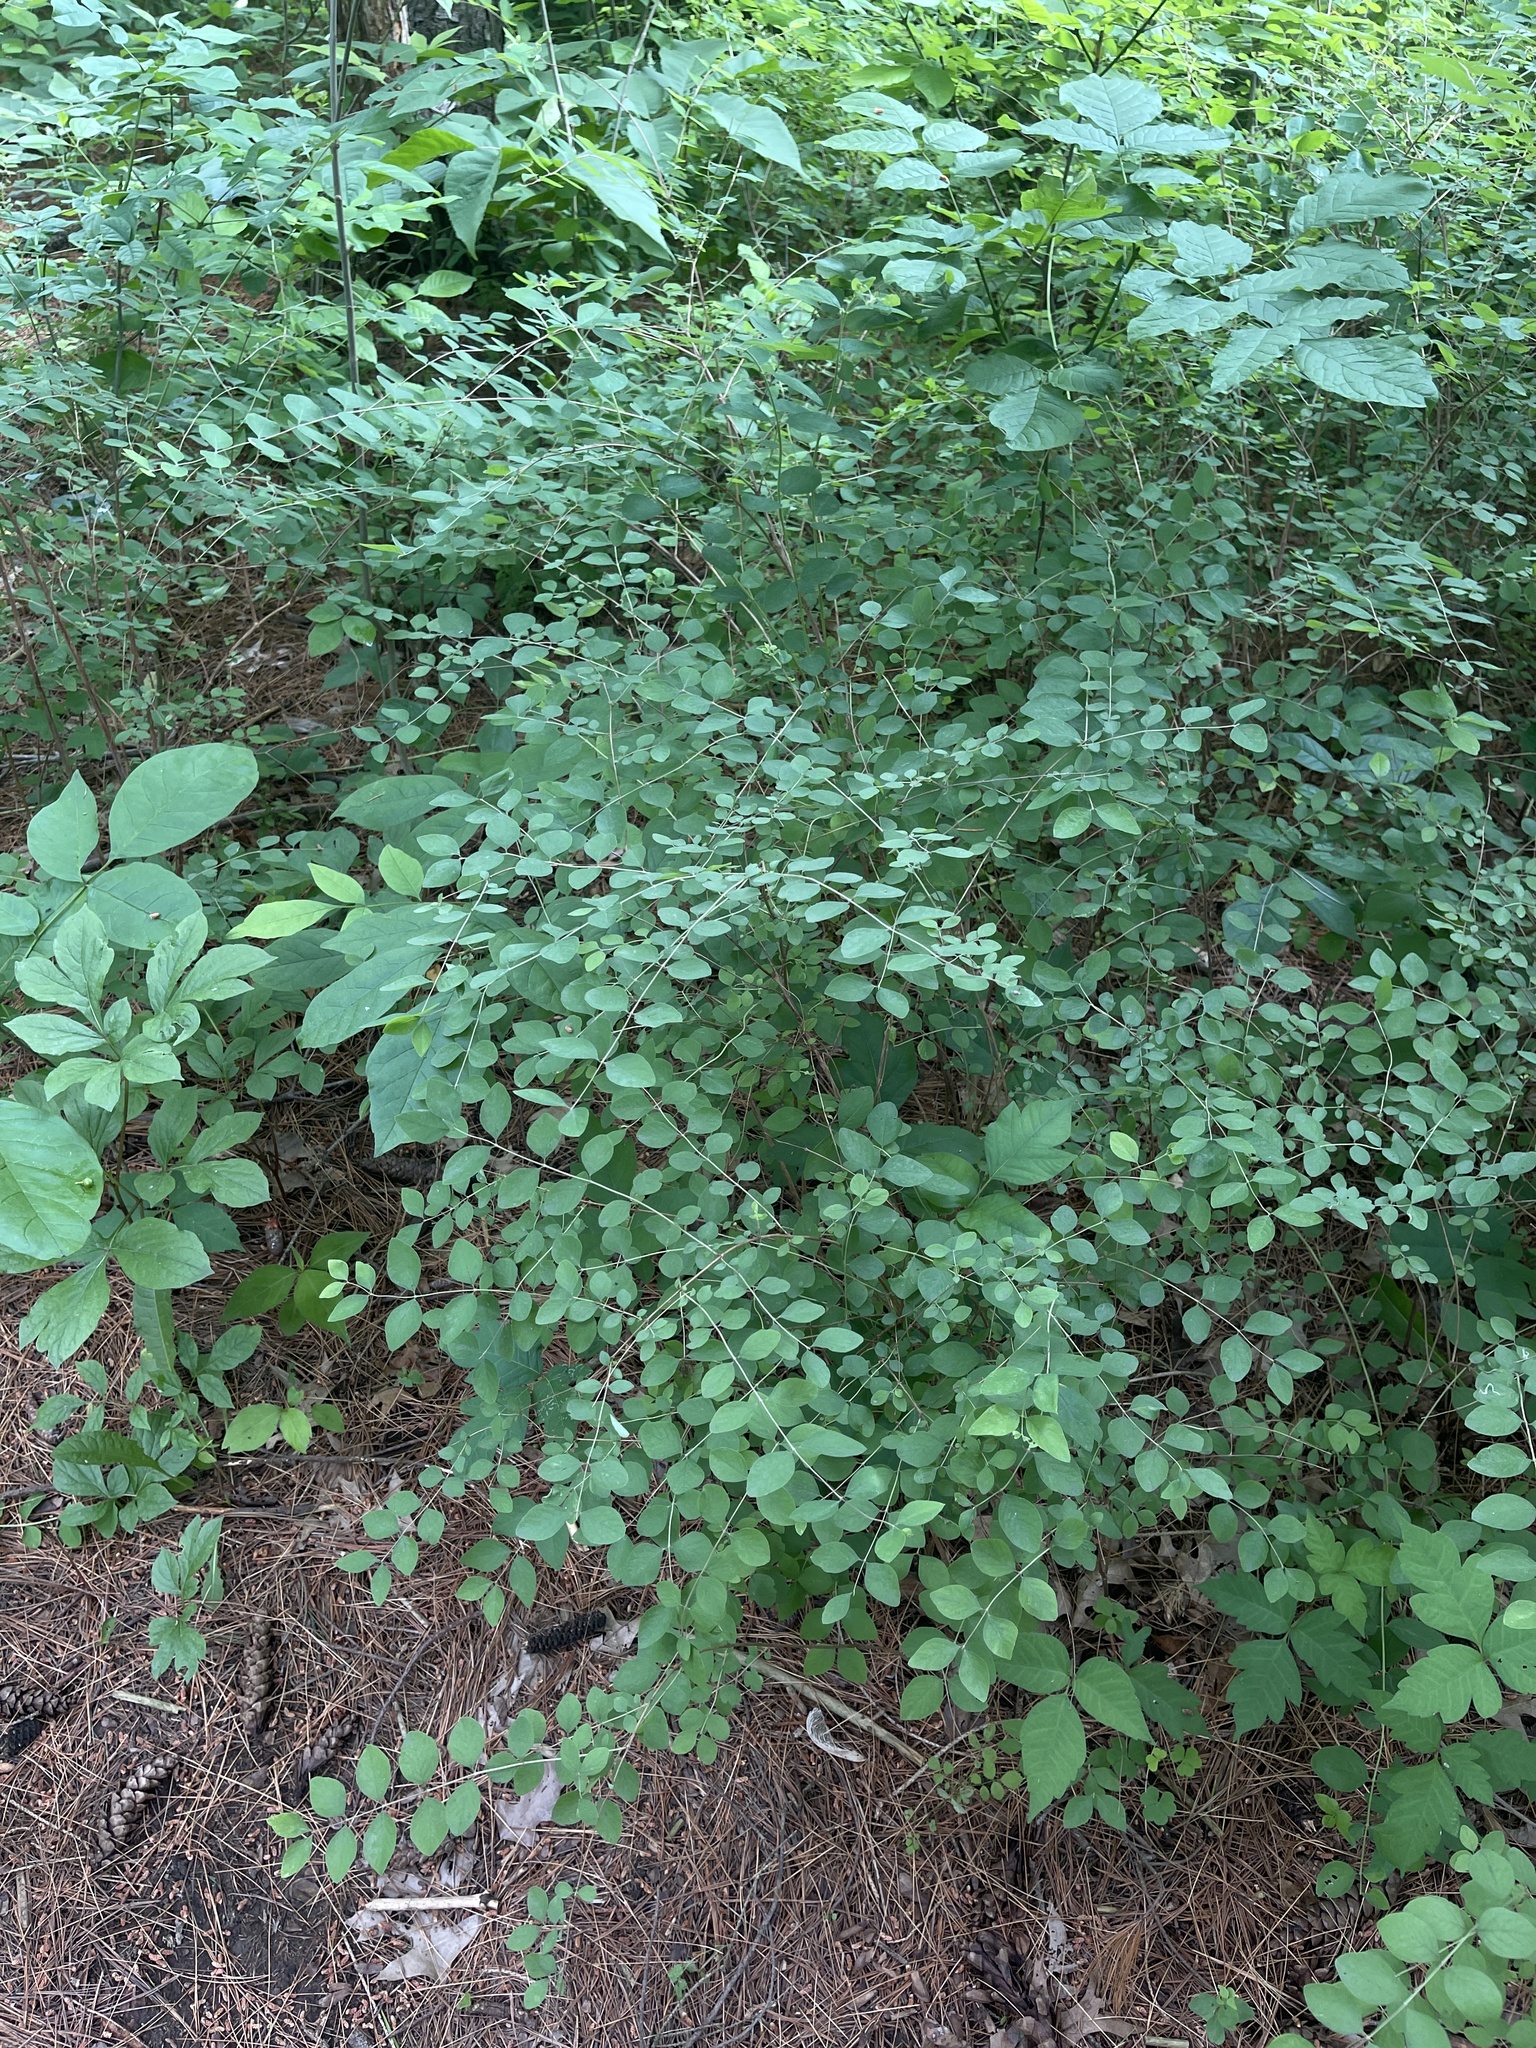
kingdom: Plantae
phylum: Tracheophyta
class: Magnoliopsida
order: Dipsacales
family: Caprifoliaceae
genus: Symphoricarpos
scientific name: Symphoricarpos orbiculatus
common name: Coralberry
